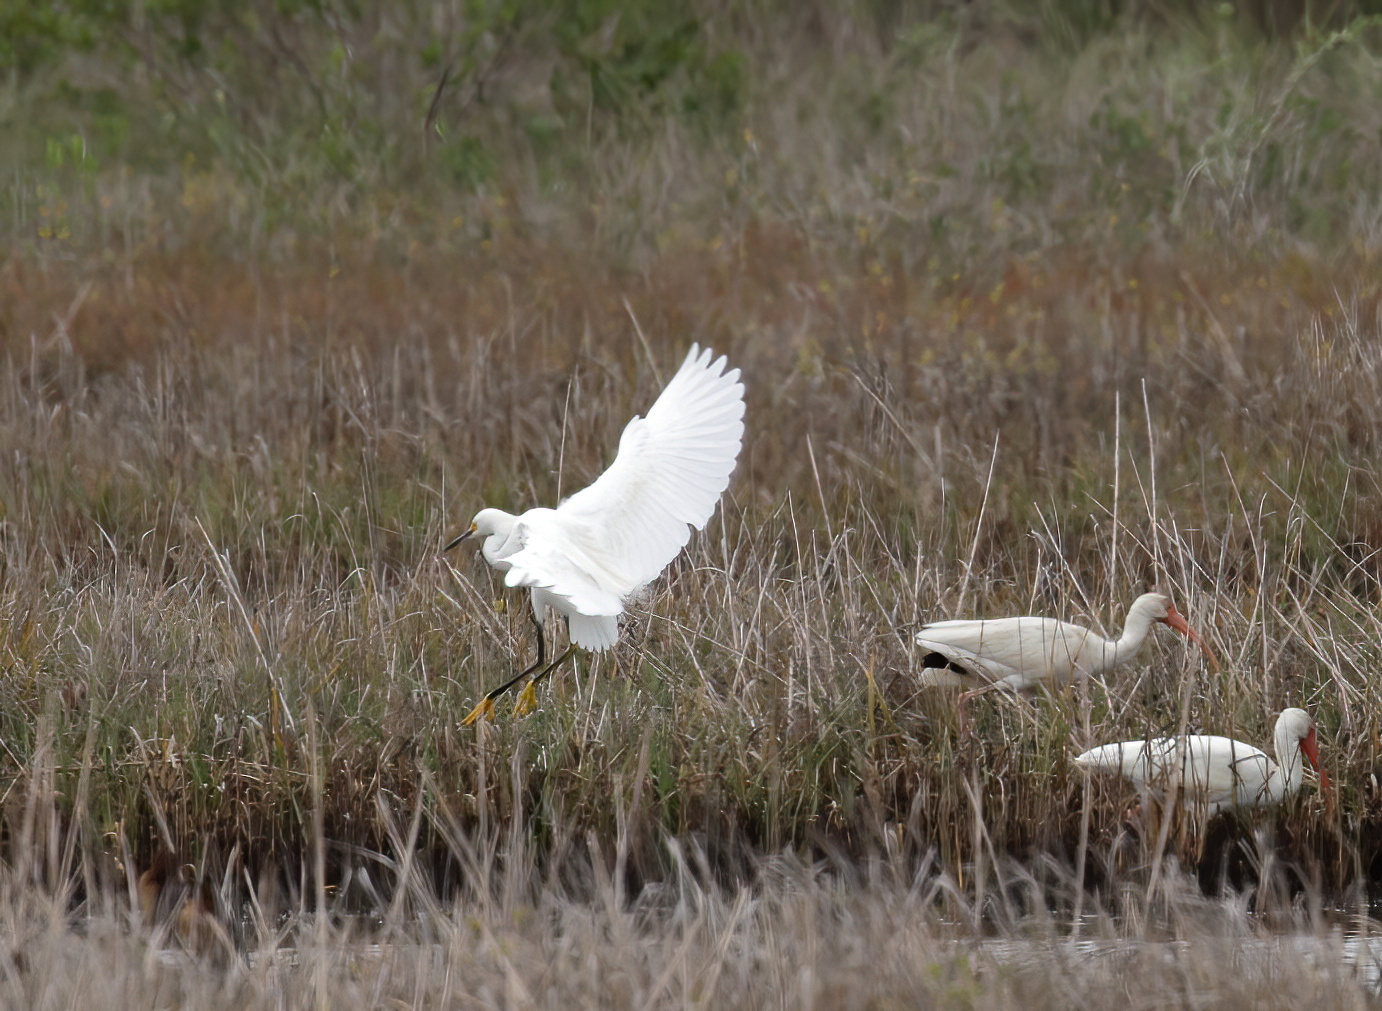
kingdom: Animalia
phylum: Chordata
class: Aves
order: Pelecaniformes
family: Ardeidae
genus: Egretta
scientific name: Egretta thula
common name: Snowy egret
